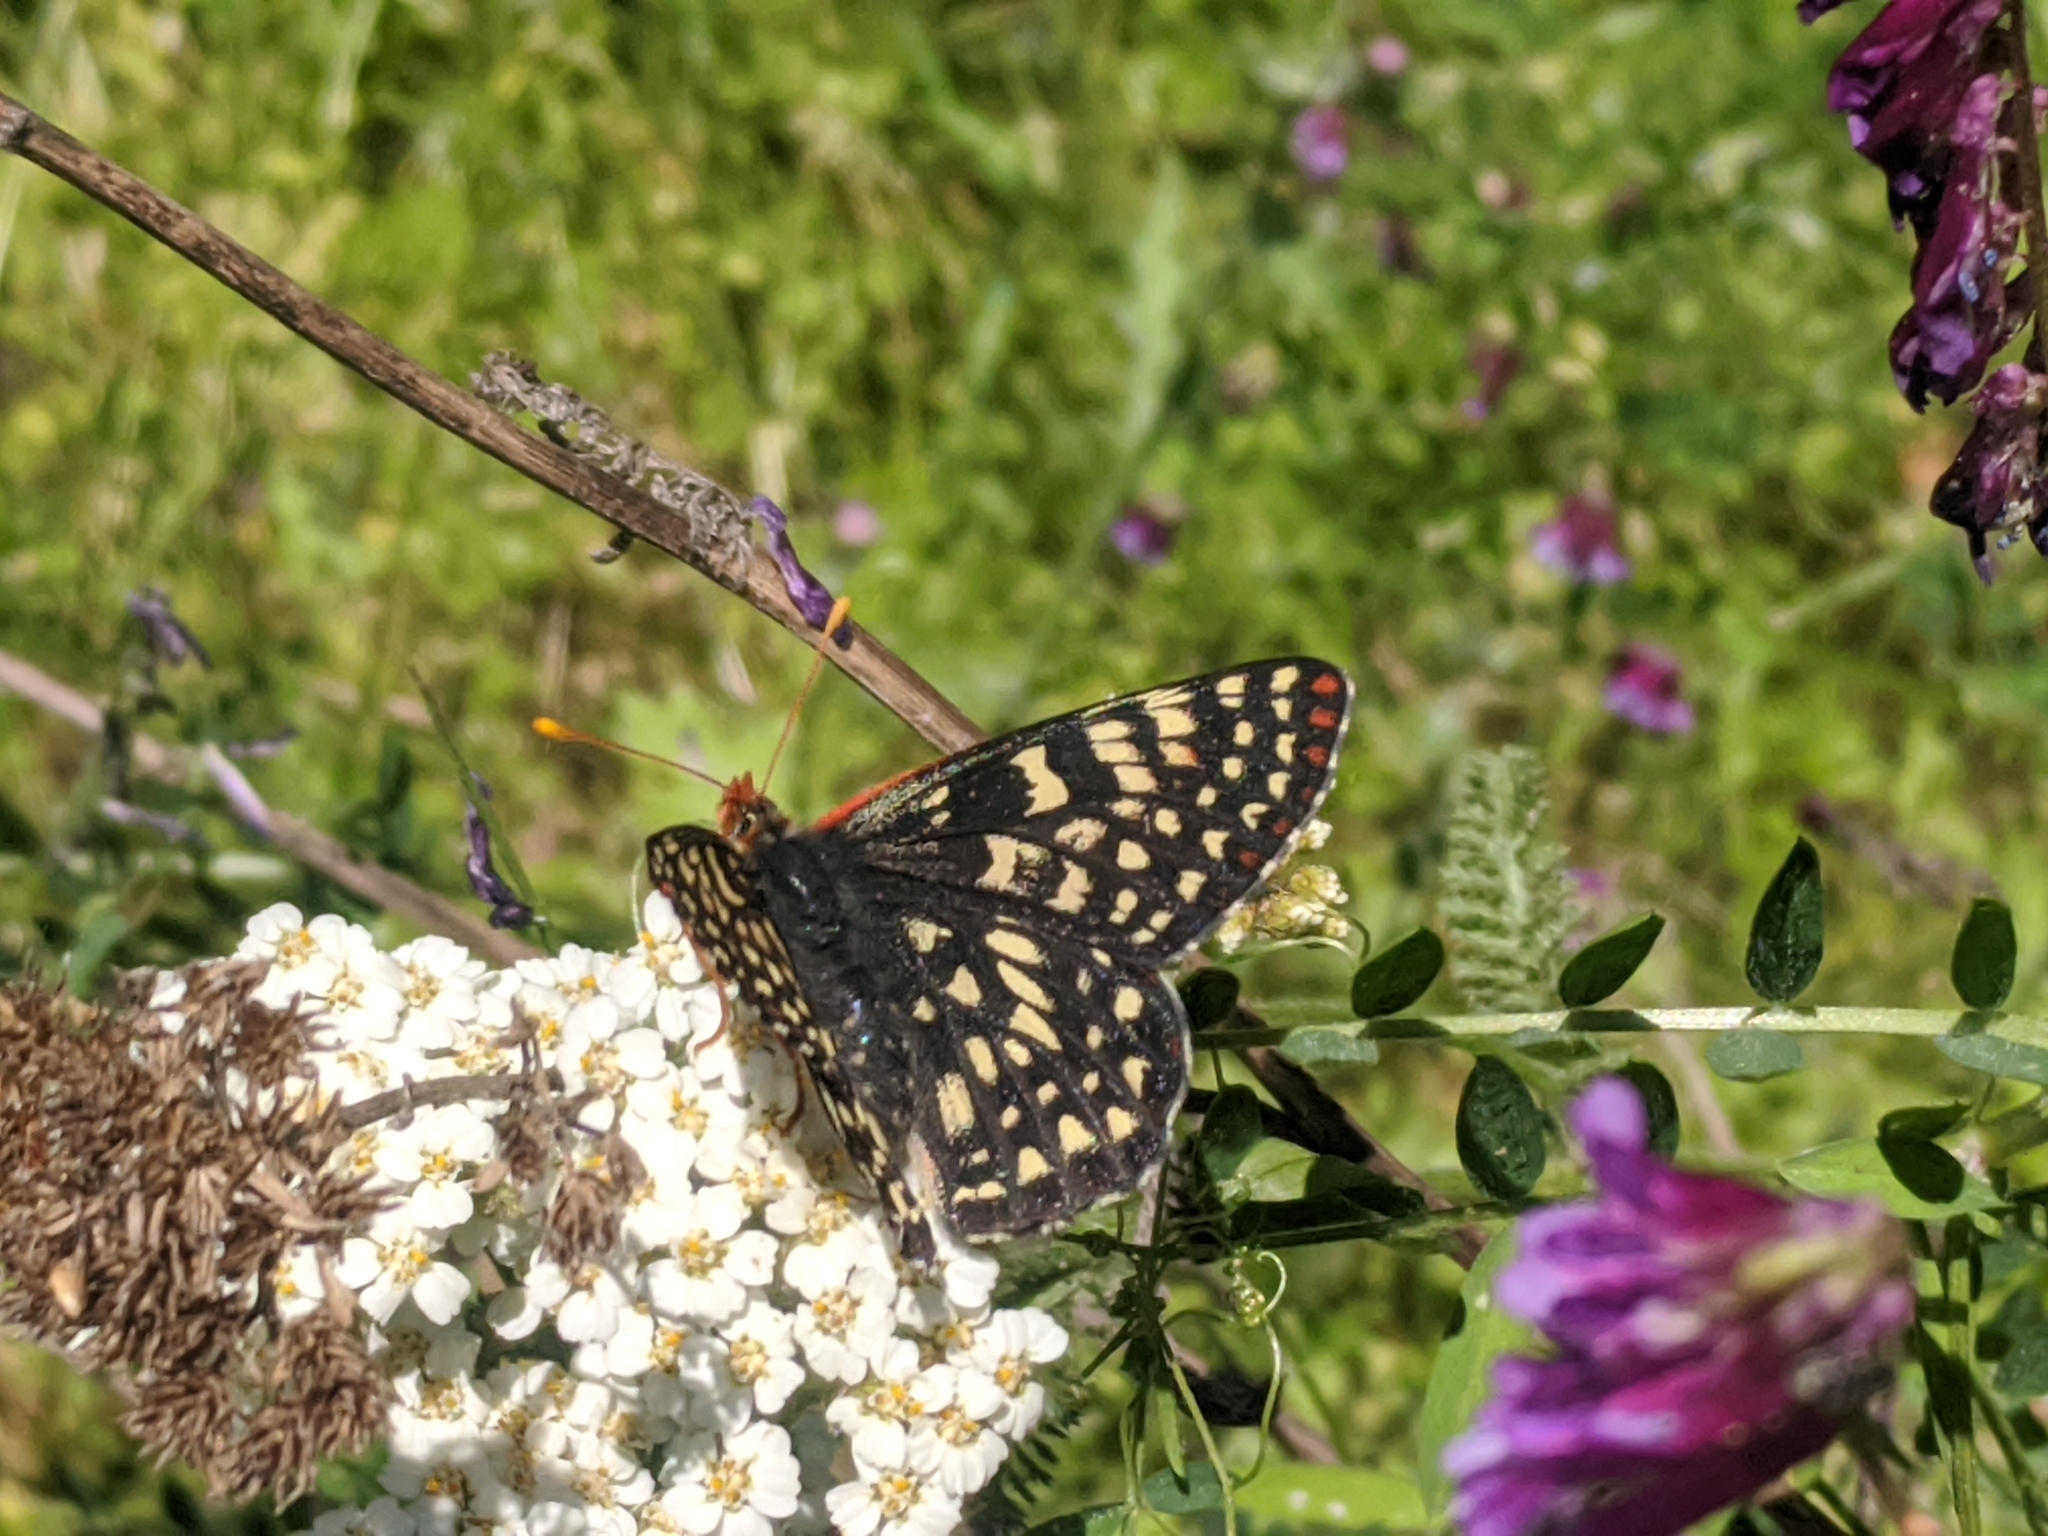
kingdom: Animalia
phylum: Arthropoda
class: Insecta
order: Lepidoptera
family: Nymphalidae
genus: Occidryas
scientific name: Occidryas chalcedona
